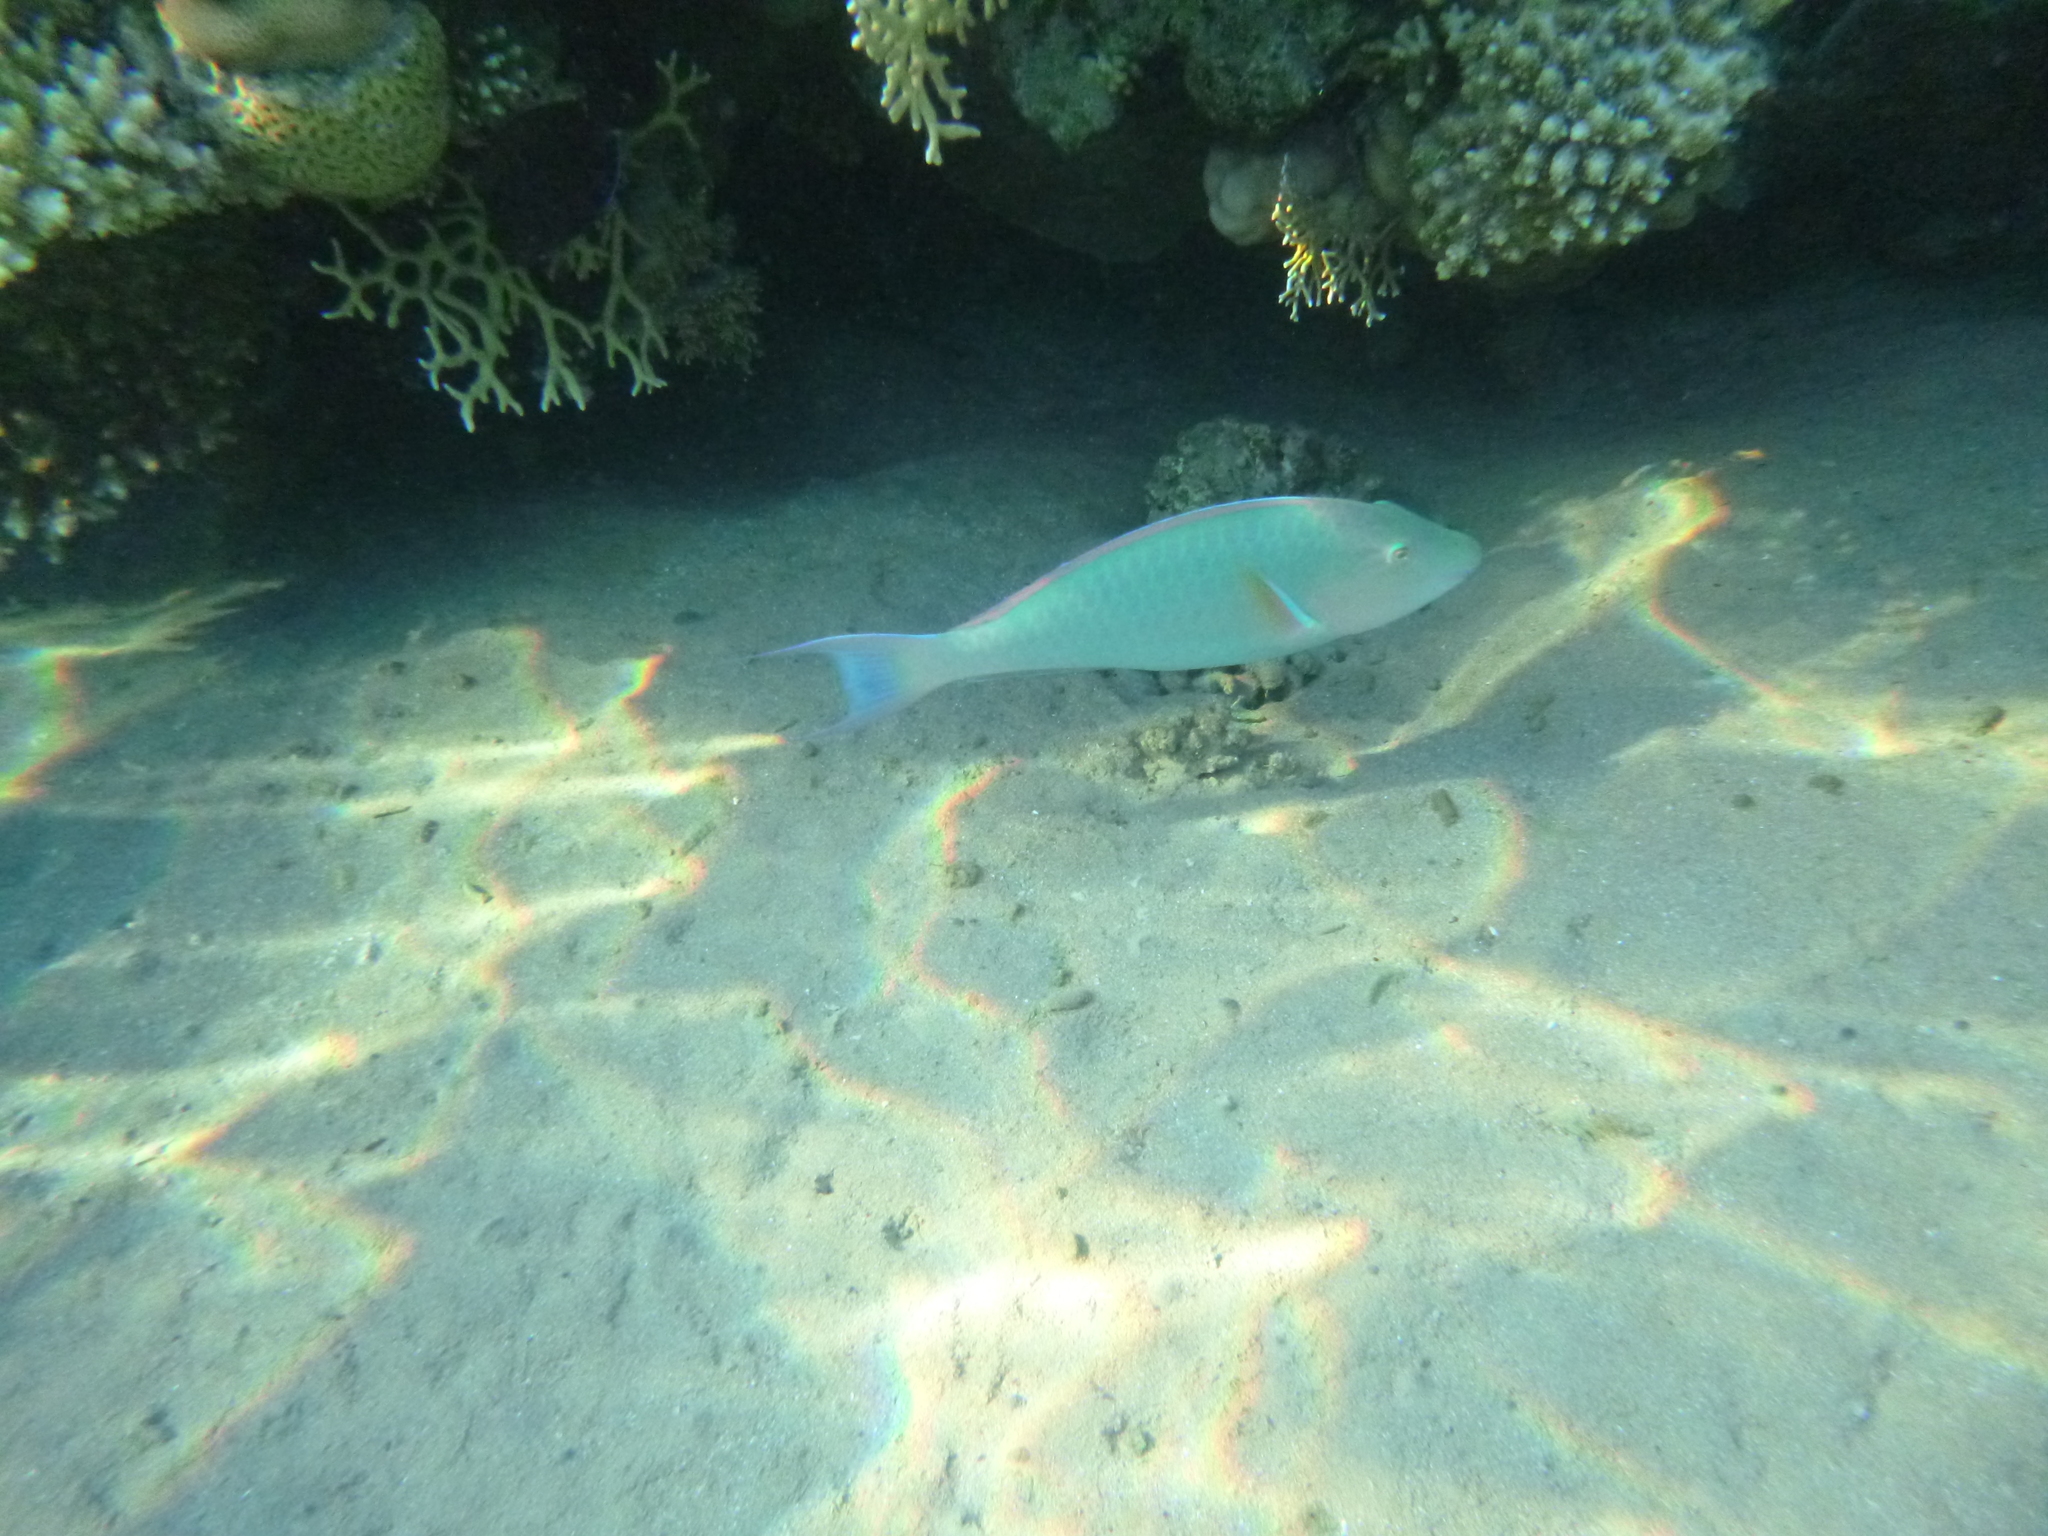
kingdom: Animalia
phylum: Chordata
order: Perciformes
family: Scaridae
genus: Hipposcarus
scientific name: Hipposcarus harid
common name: Candelamoa parrotfish
